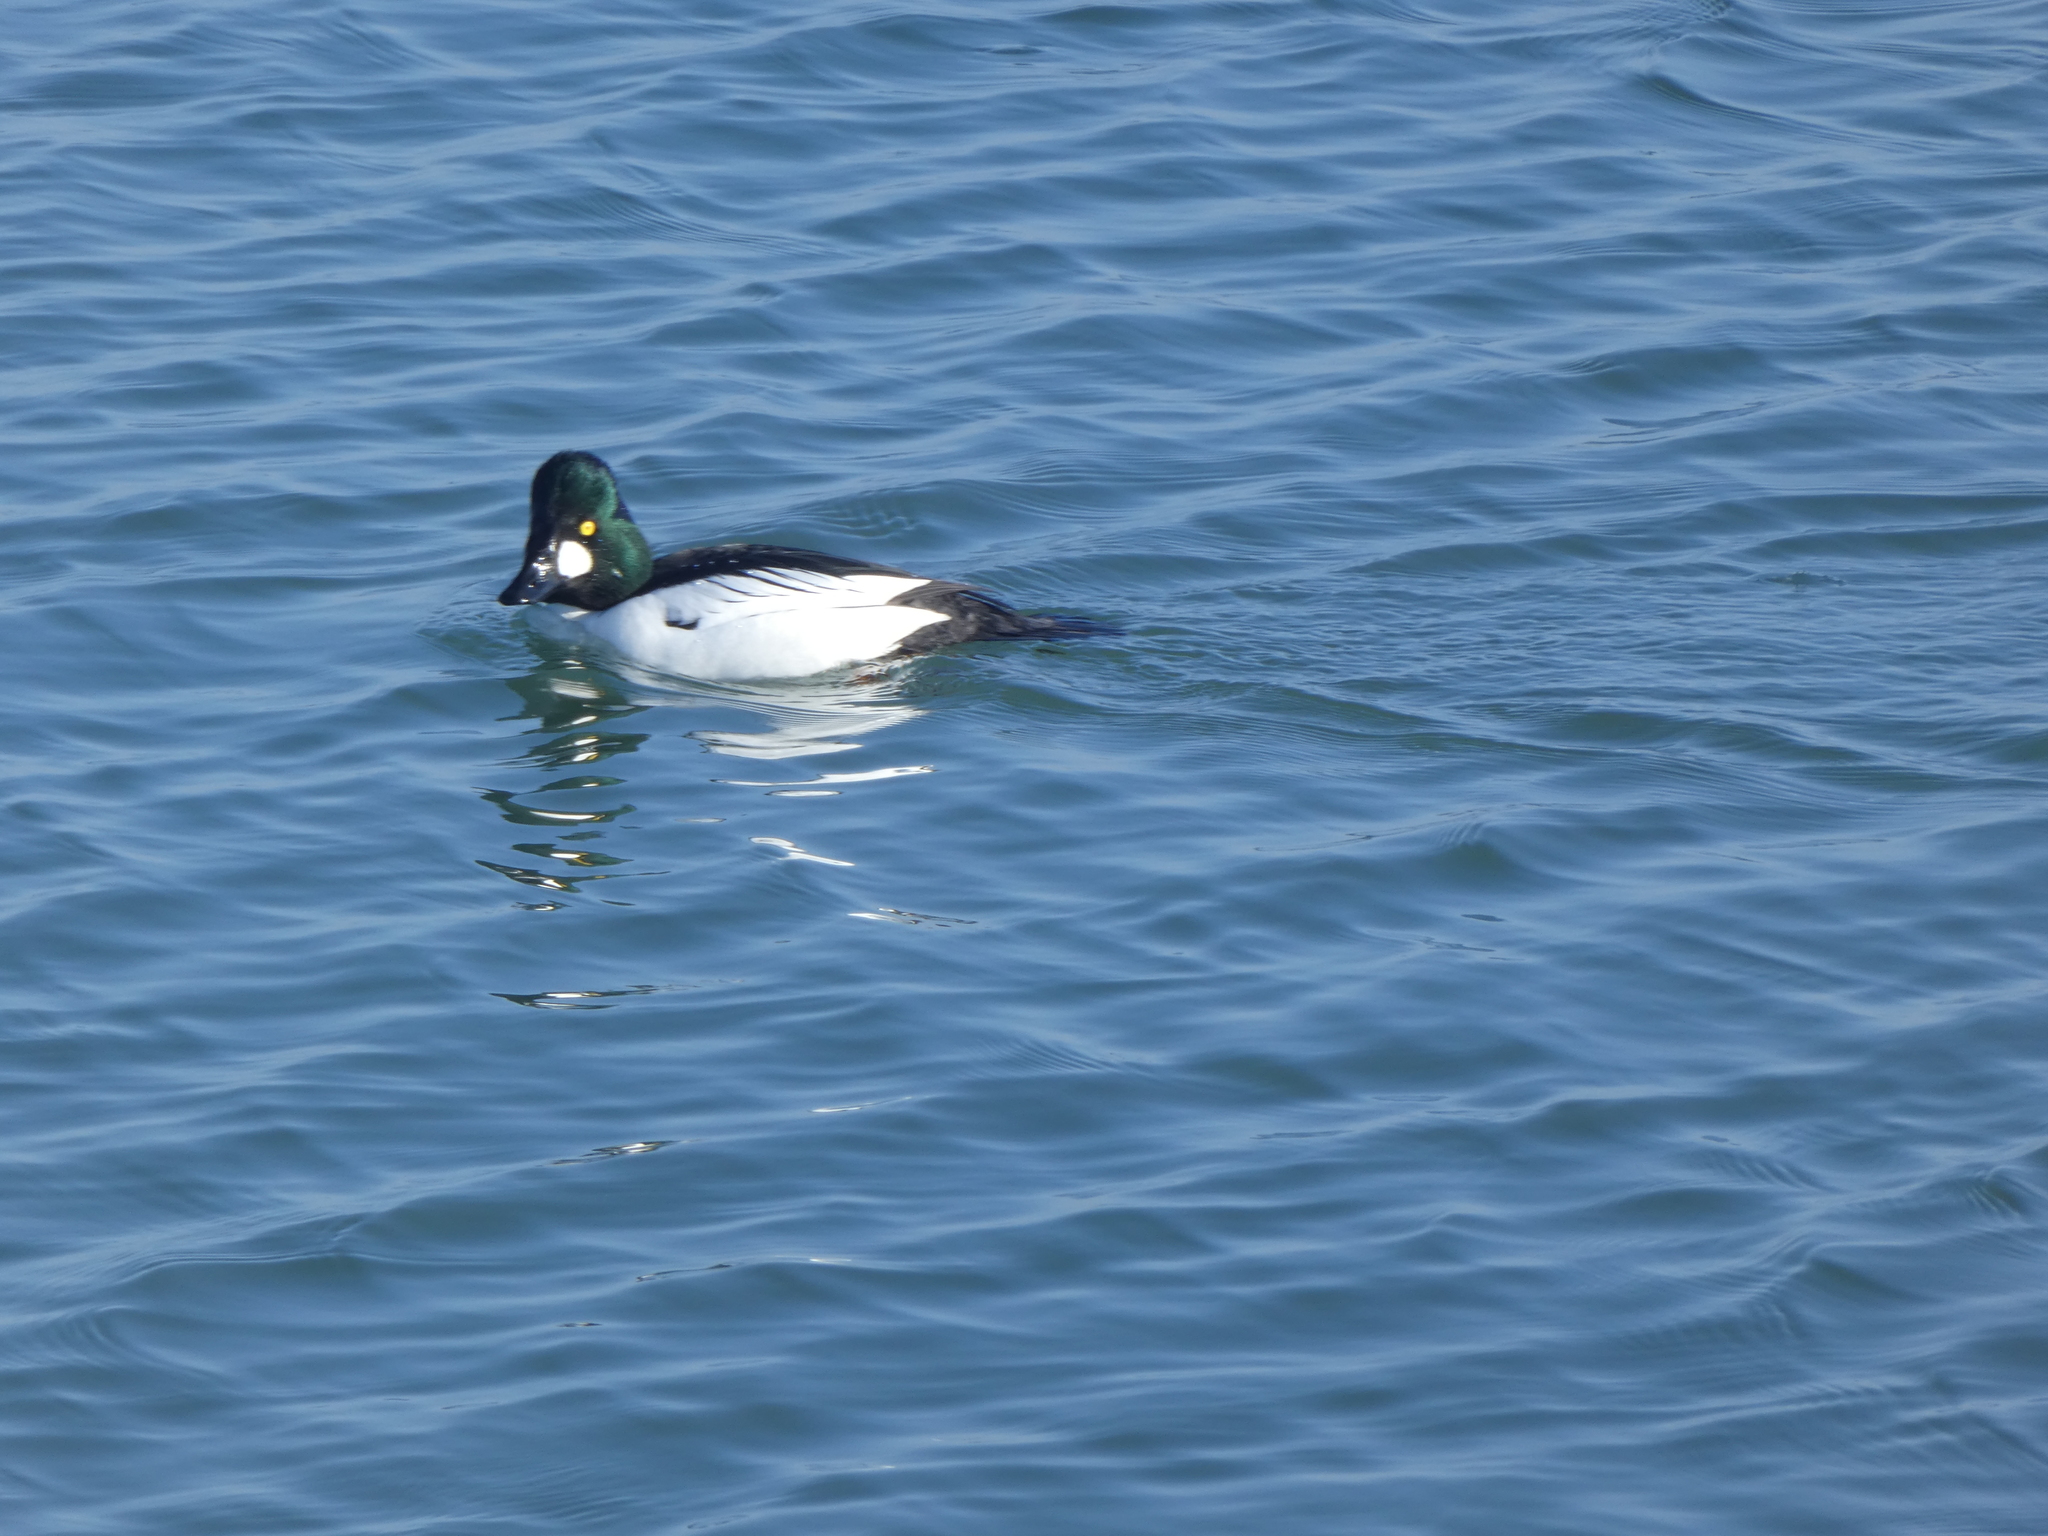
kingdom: Animalia
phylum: Chordata
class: Aves
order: Anseriformes
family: Anatidae
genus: Bucephala
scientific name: Bucephala clangula
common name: Common goldeneye
